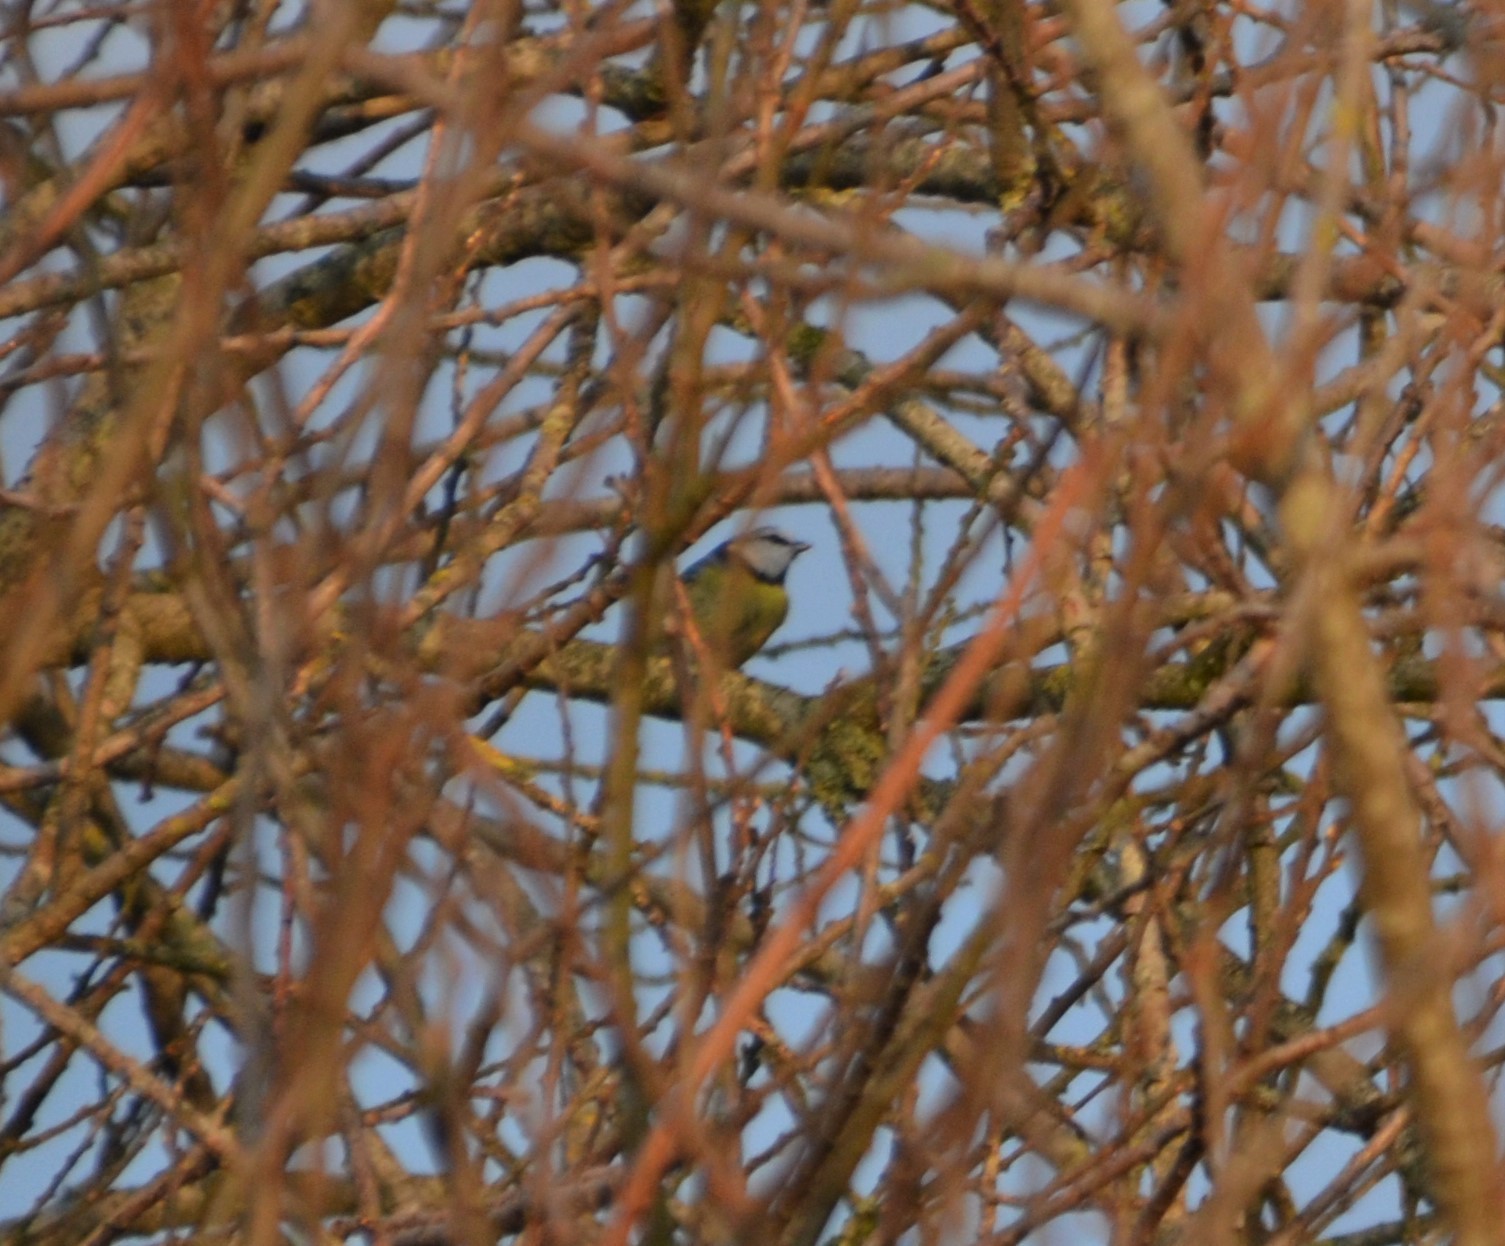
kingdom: Animalia
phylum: Chordata
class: Aves
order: Passeriformes
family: Paridae
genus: Cyanistes
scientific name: Cyanistes caeruleus
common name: Eurasian blue tit
